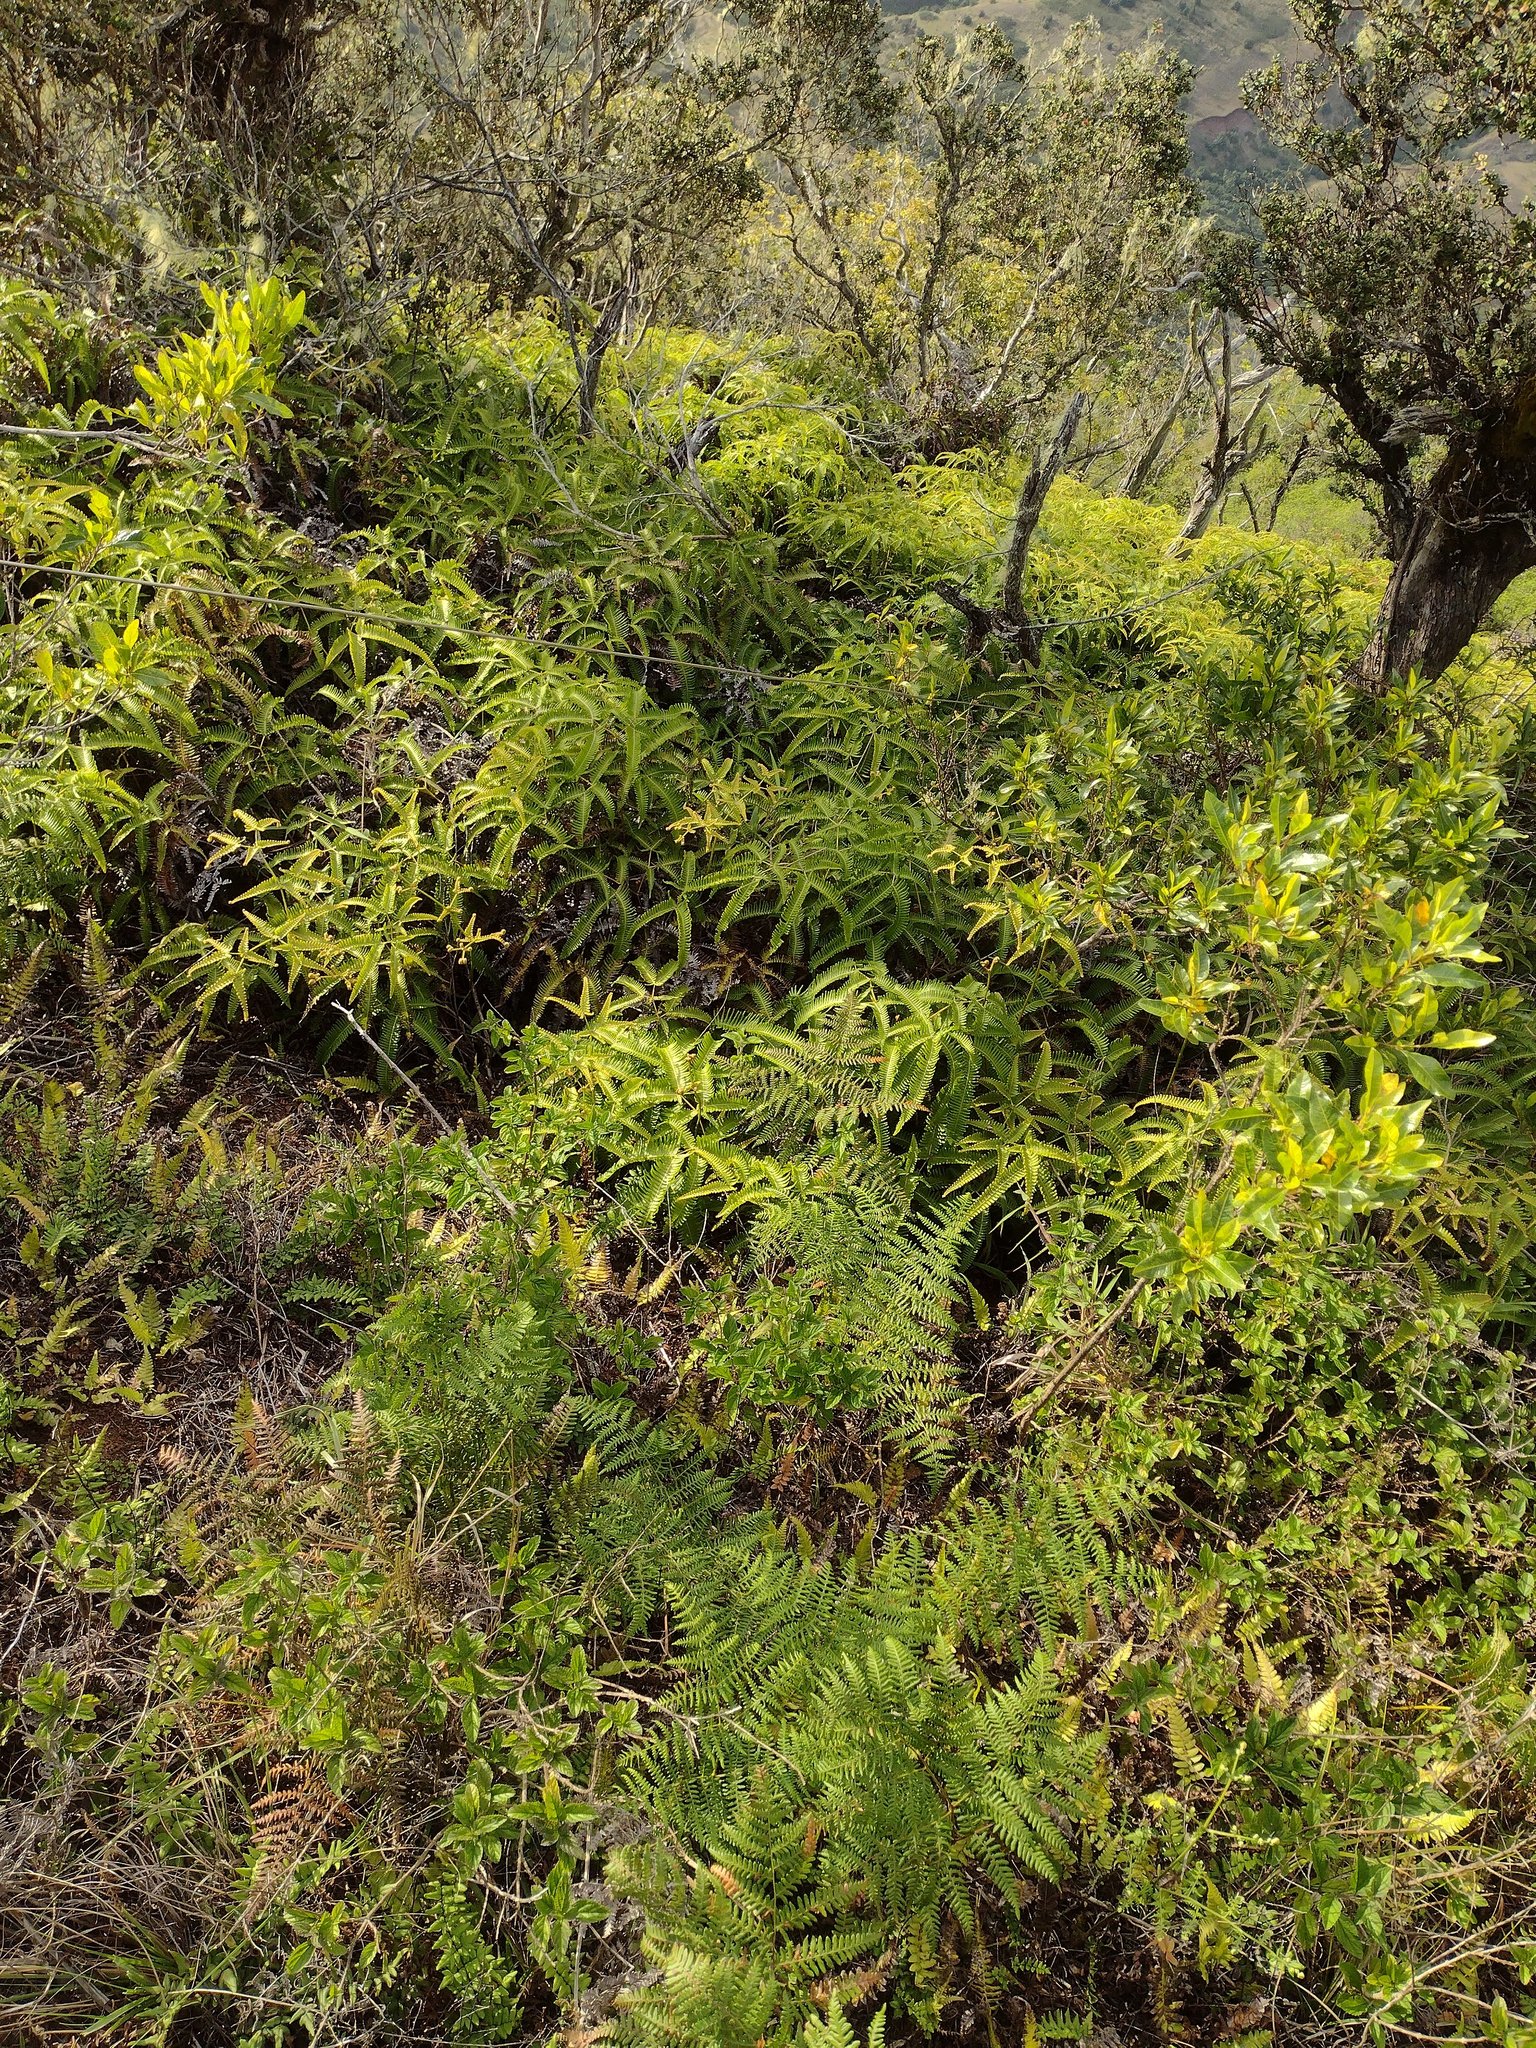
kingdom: Plantae
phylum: Tracheophyta
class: Polypodiopsida
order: Gleicheniales
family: Gleicheniaceae
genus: Dicranopteris
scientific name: Dicranopteris linearis
